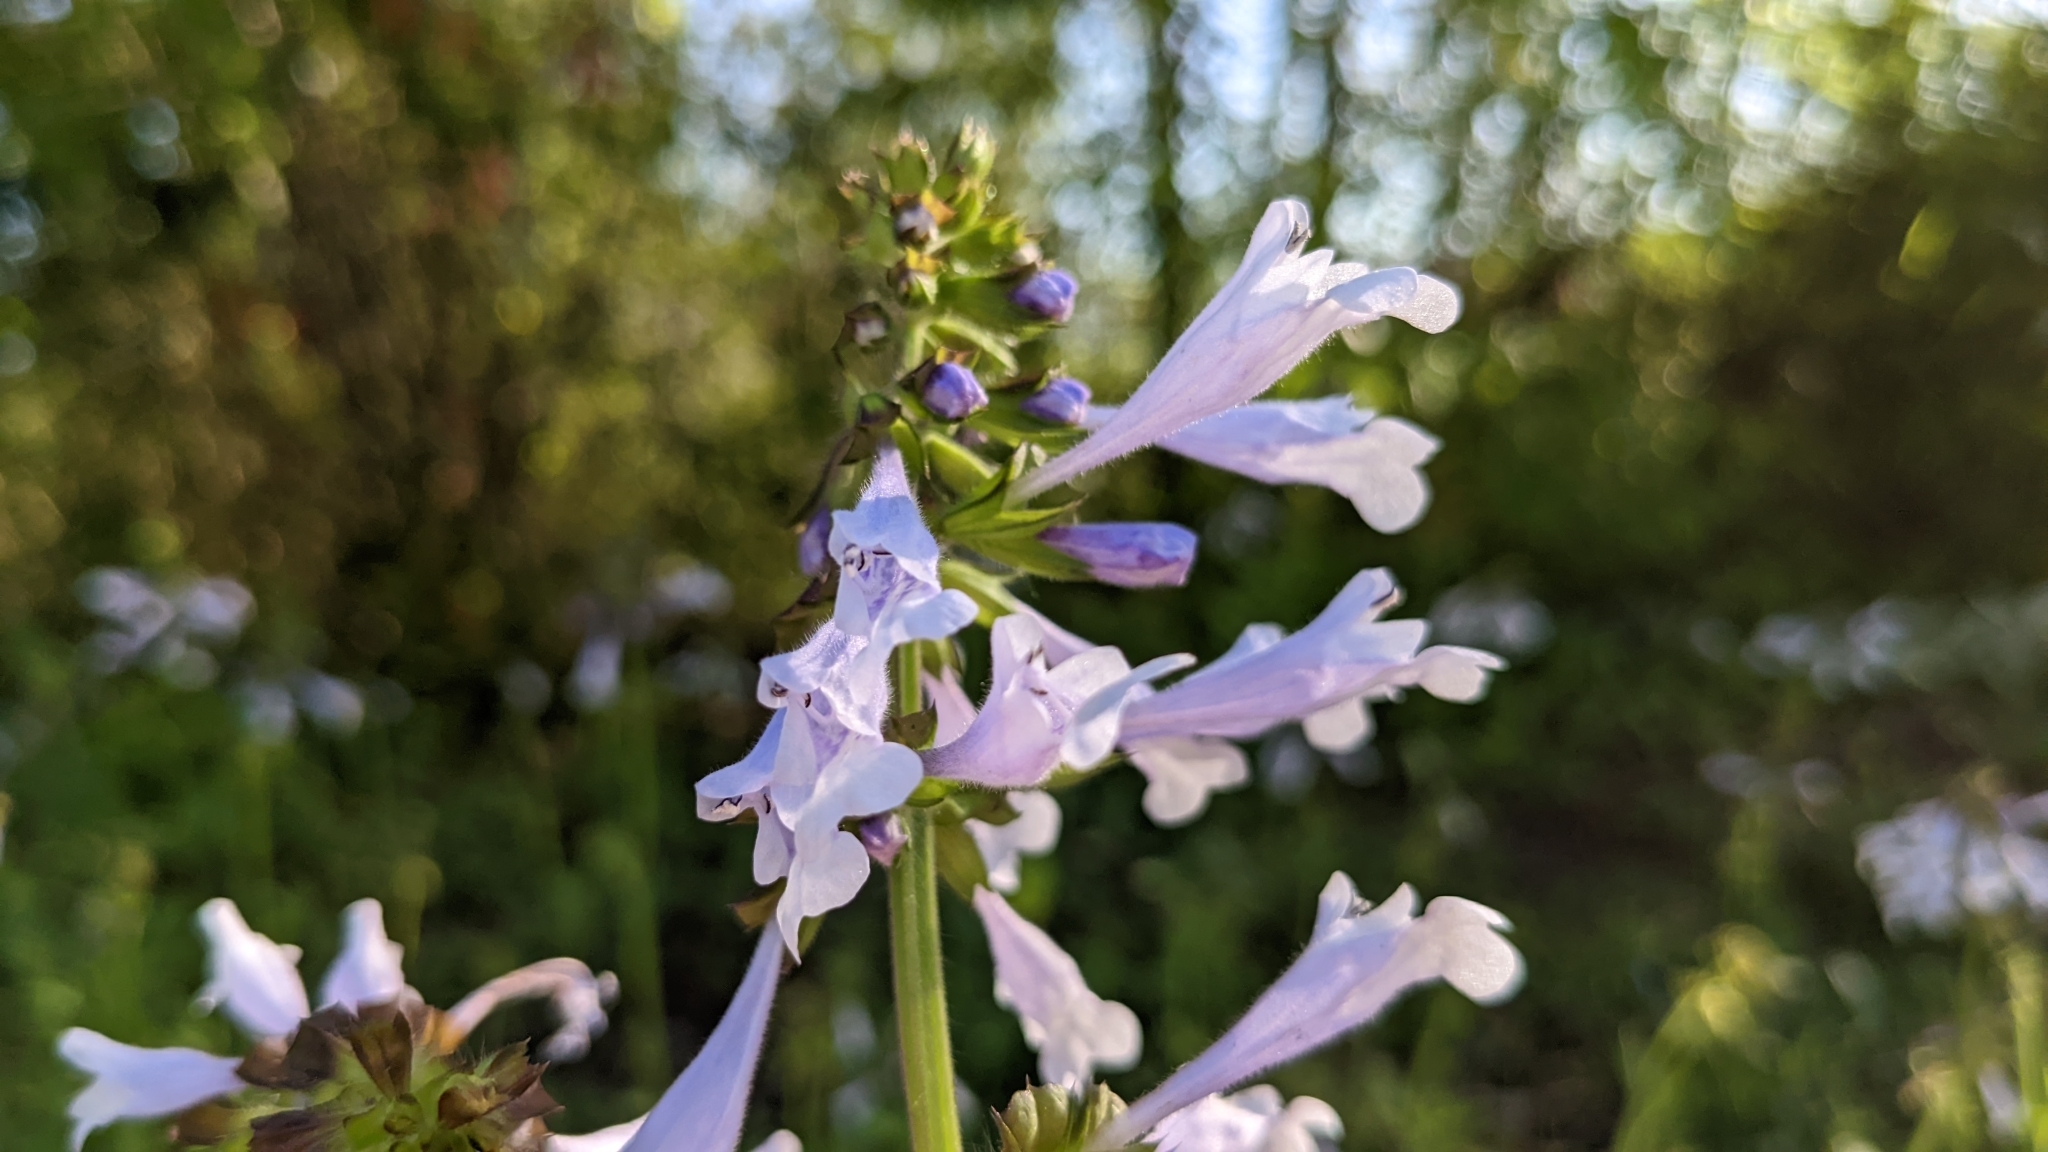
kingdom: Plantae
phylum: Tracheophyta
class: Magnoliopsida
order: Lamiales
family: Lamiaceae
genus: Salvia
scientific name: Salvia lyrata
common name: Cancerweed
